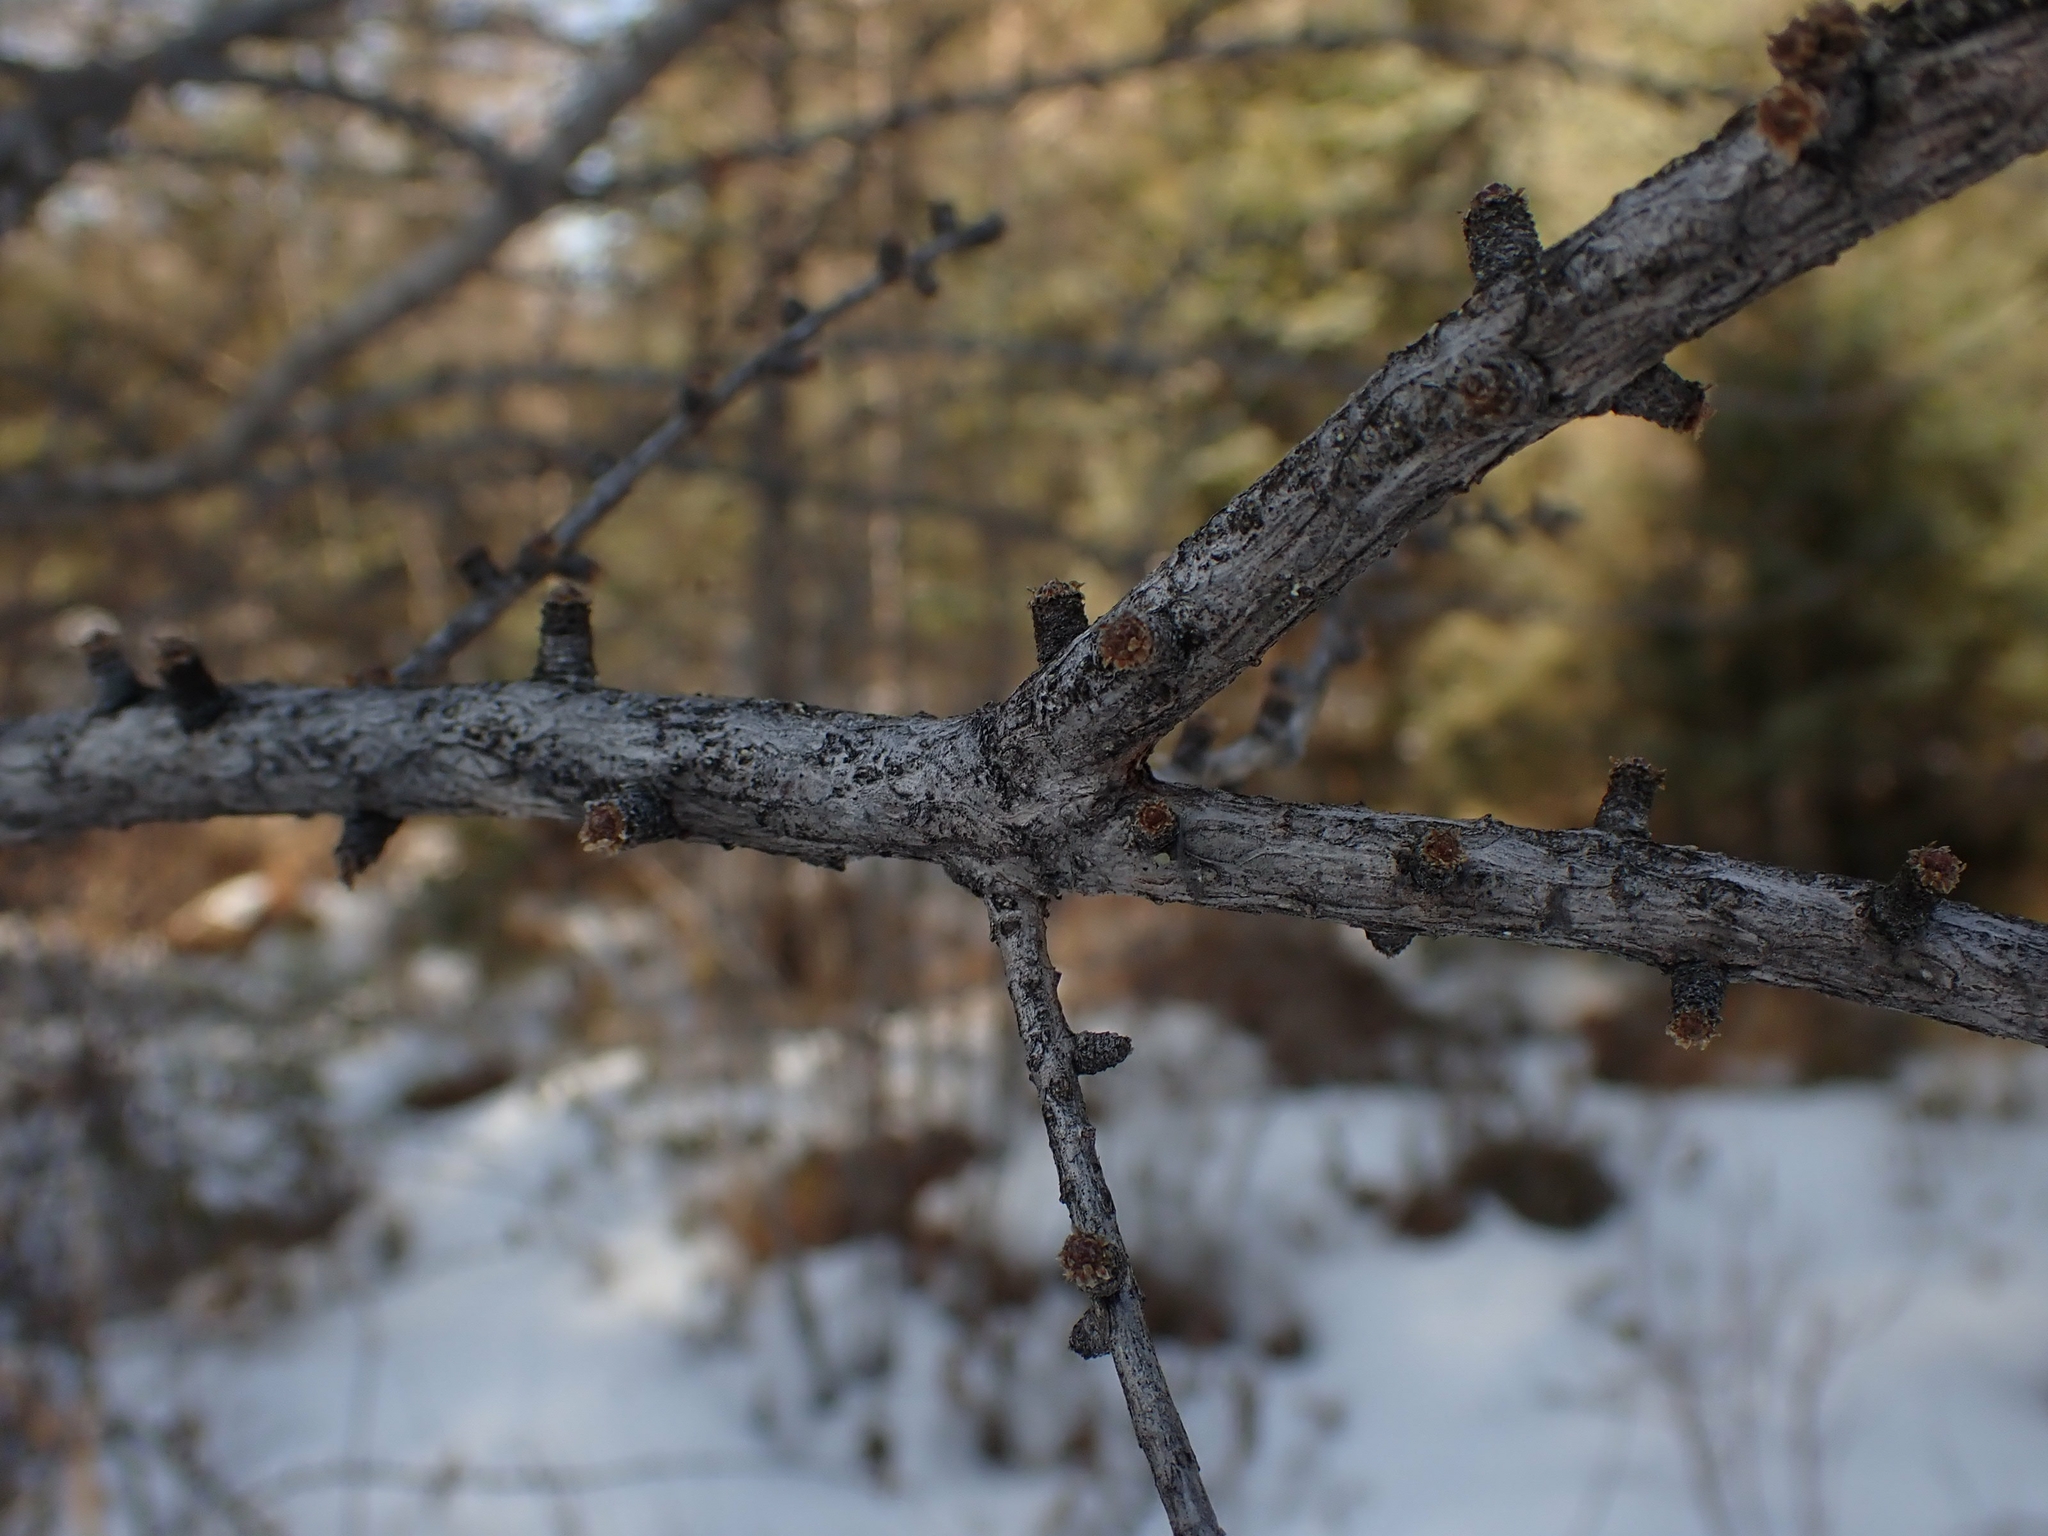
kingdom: Plantae
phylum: Tracheophyta
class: Pinopsida
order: Pinales
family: Pinaceae
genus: Larix
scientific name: Larix laricina
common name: American larch
